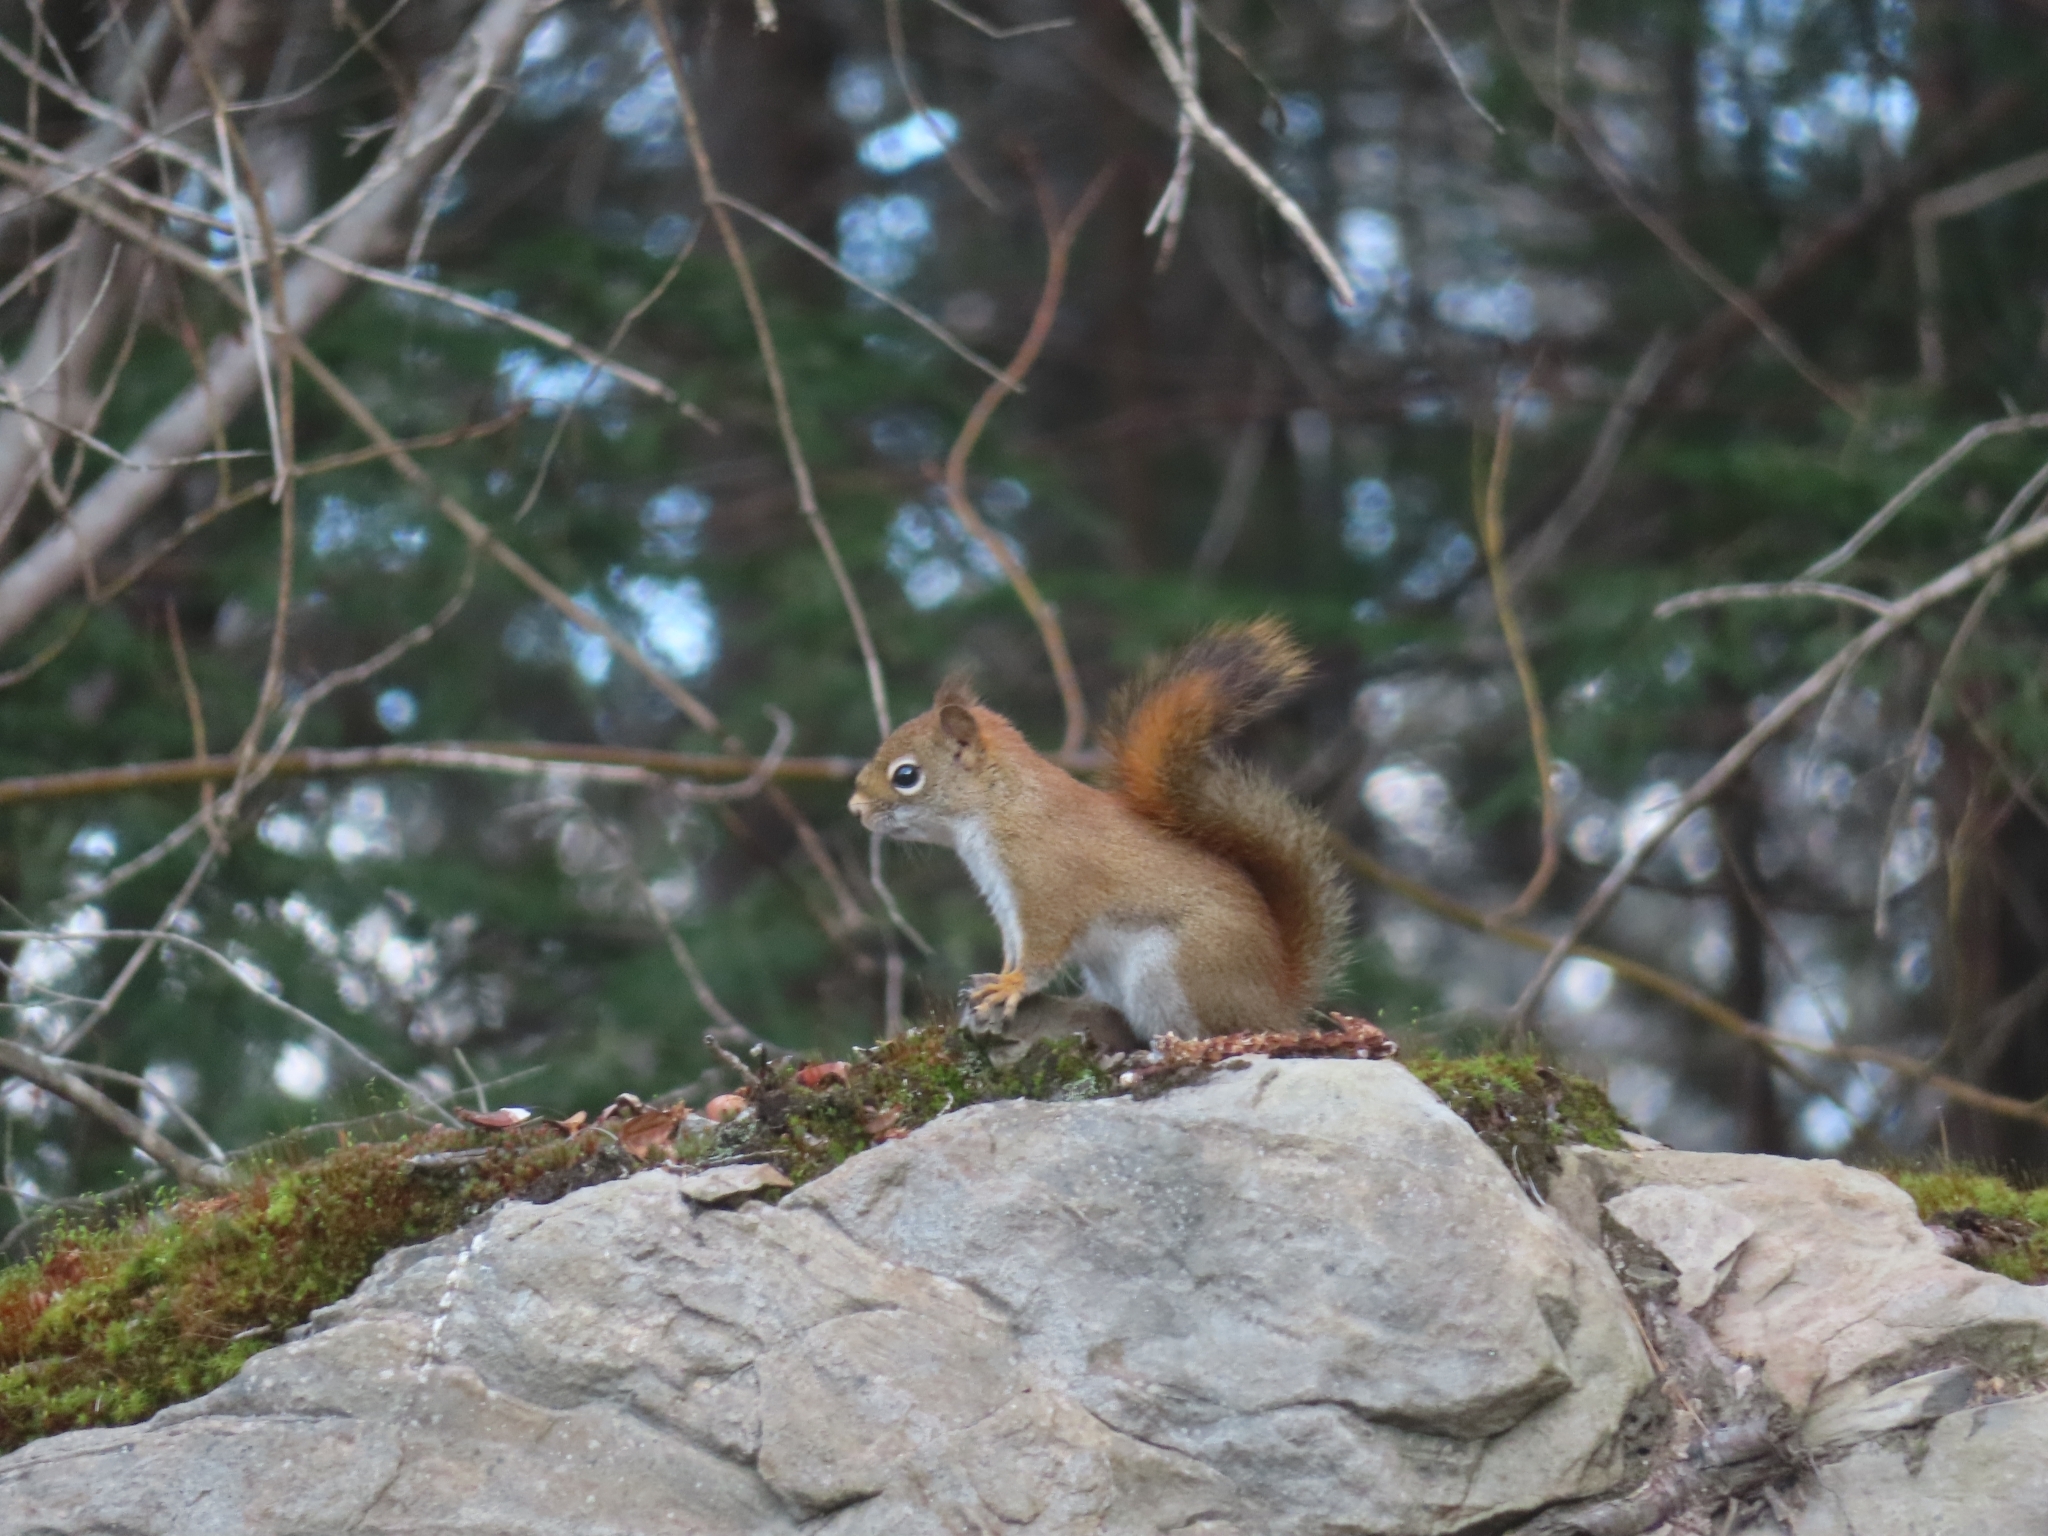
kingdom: Animalia
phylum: Chordata
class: Mammalia
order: Rodentia
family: Sciuridae
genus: Tamiasciurus
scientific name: Tamiasciurus hudsonicus
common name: Red squirrel
